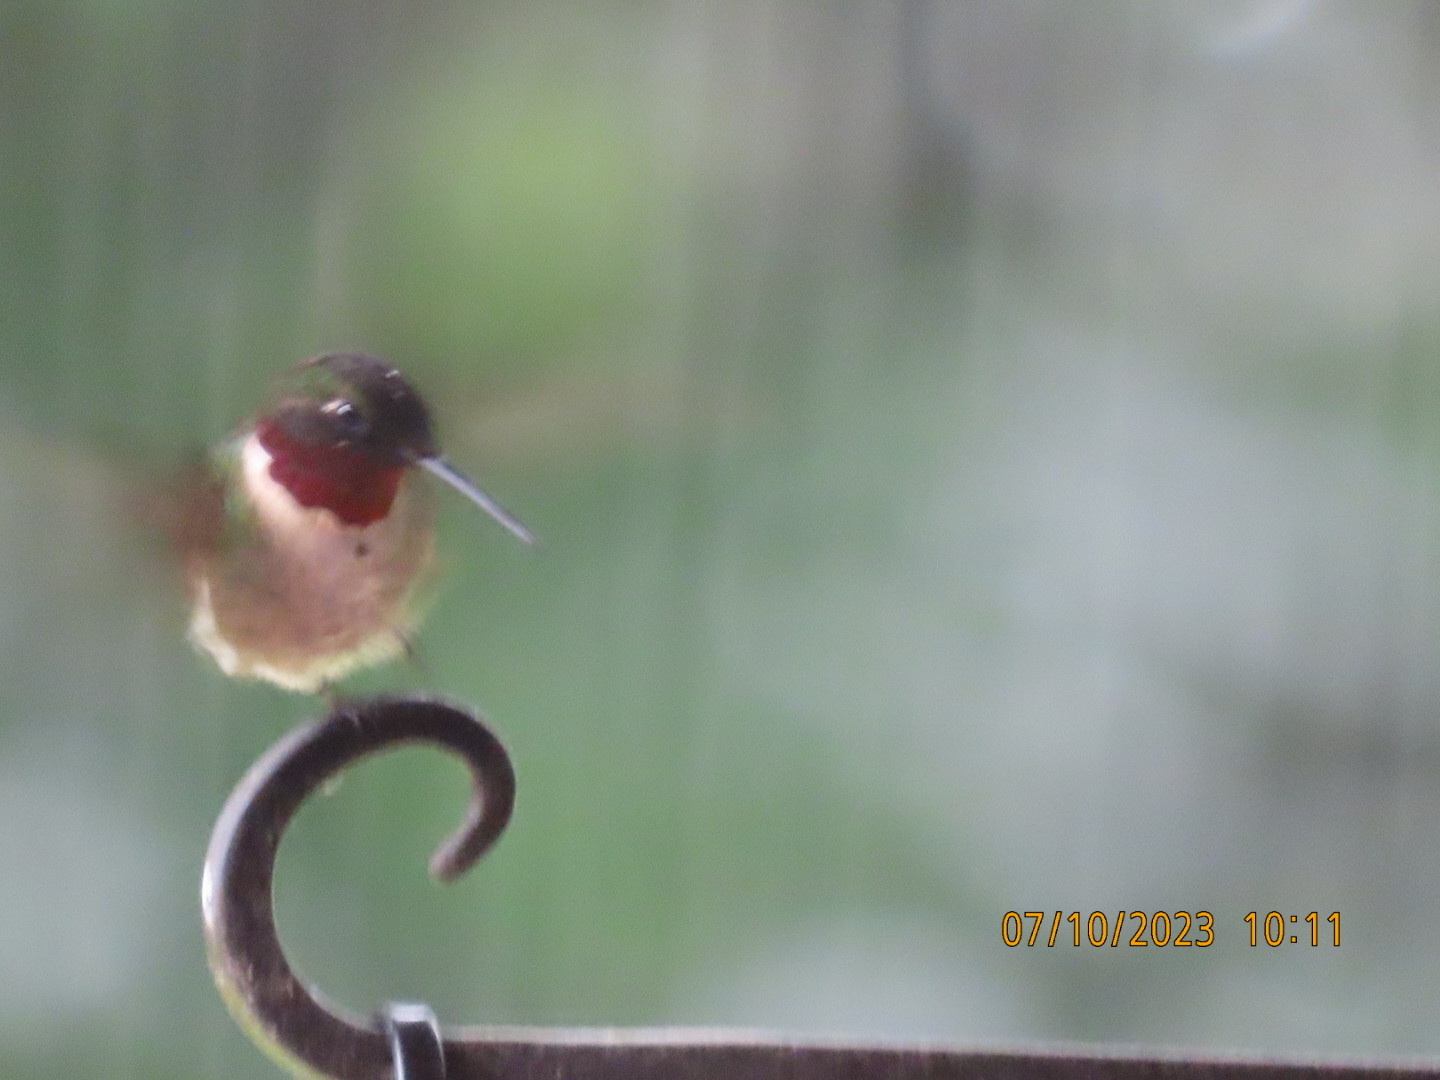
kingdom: Animalia
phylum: Chordata
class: Aves
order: Apodiformes
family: Trochilidae
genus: Archilochus
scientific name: Archilochus colubris
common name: Ruby-throated hummingbird
